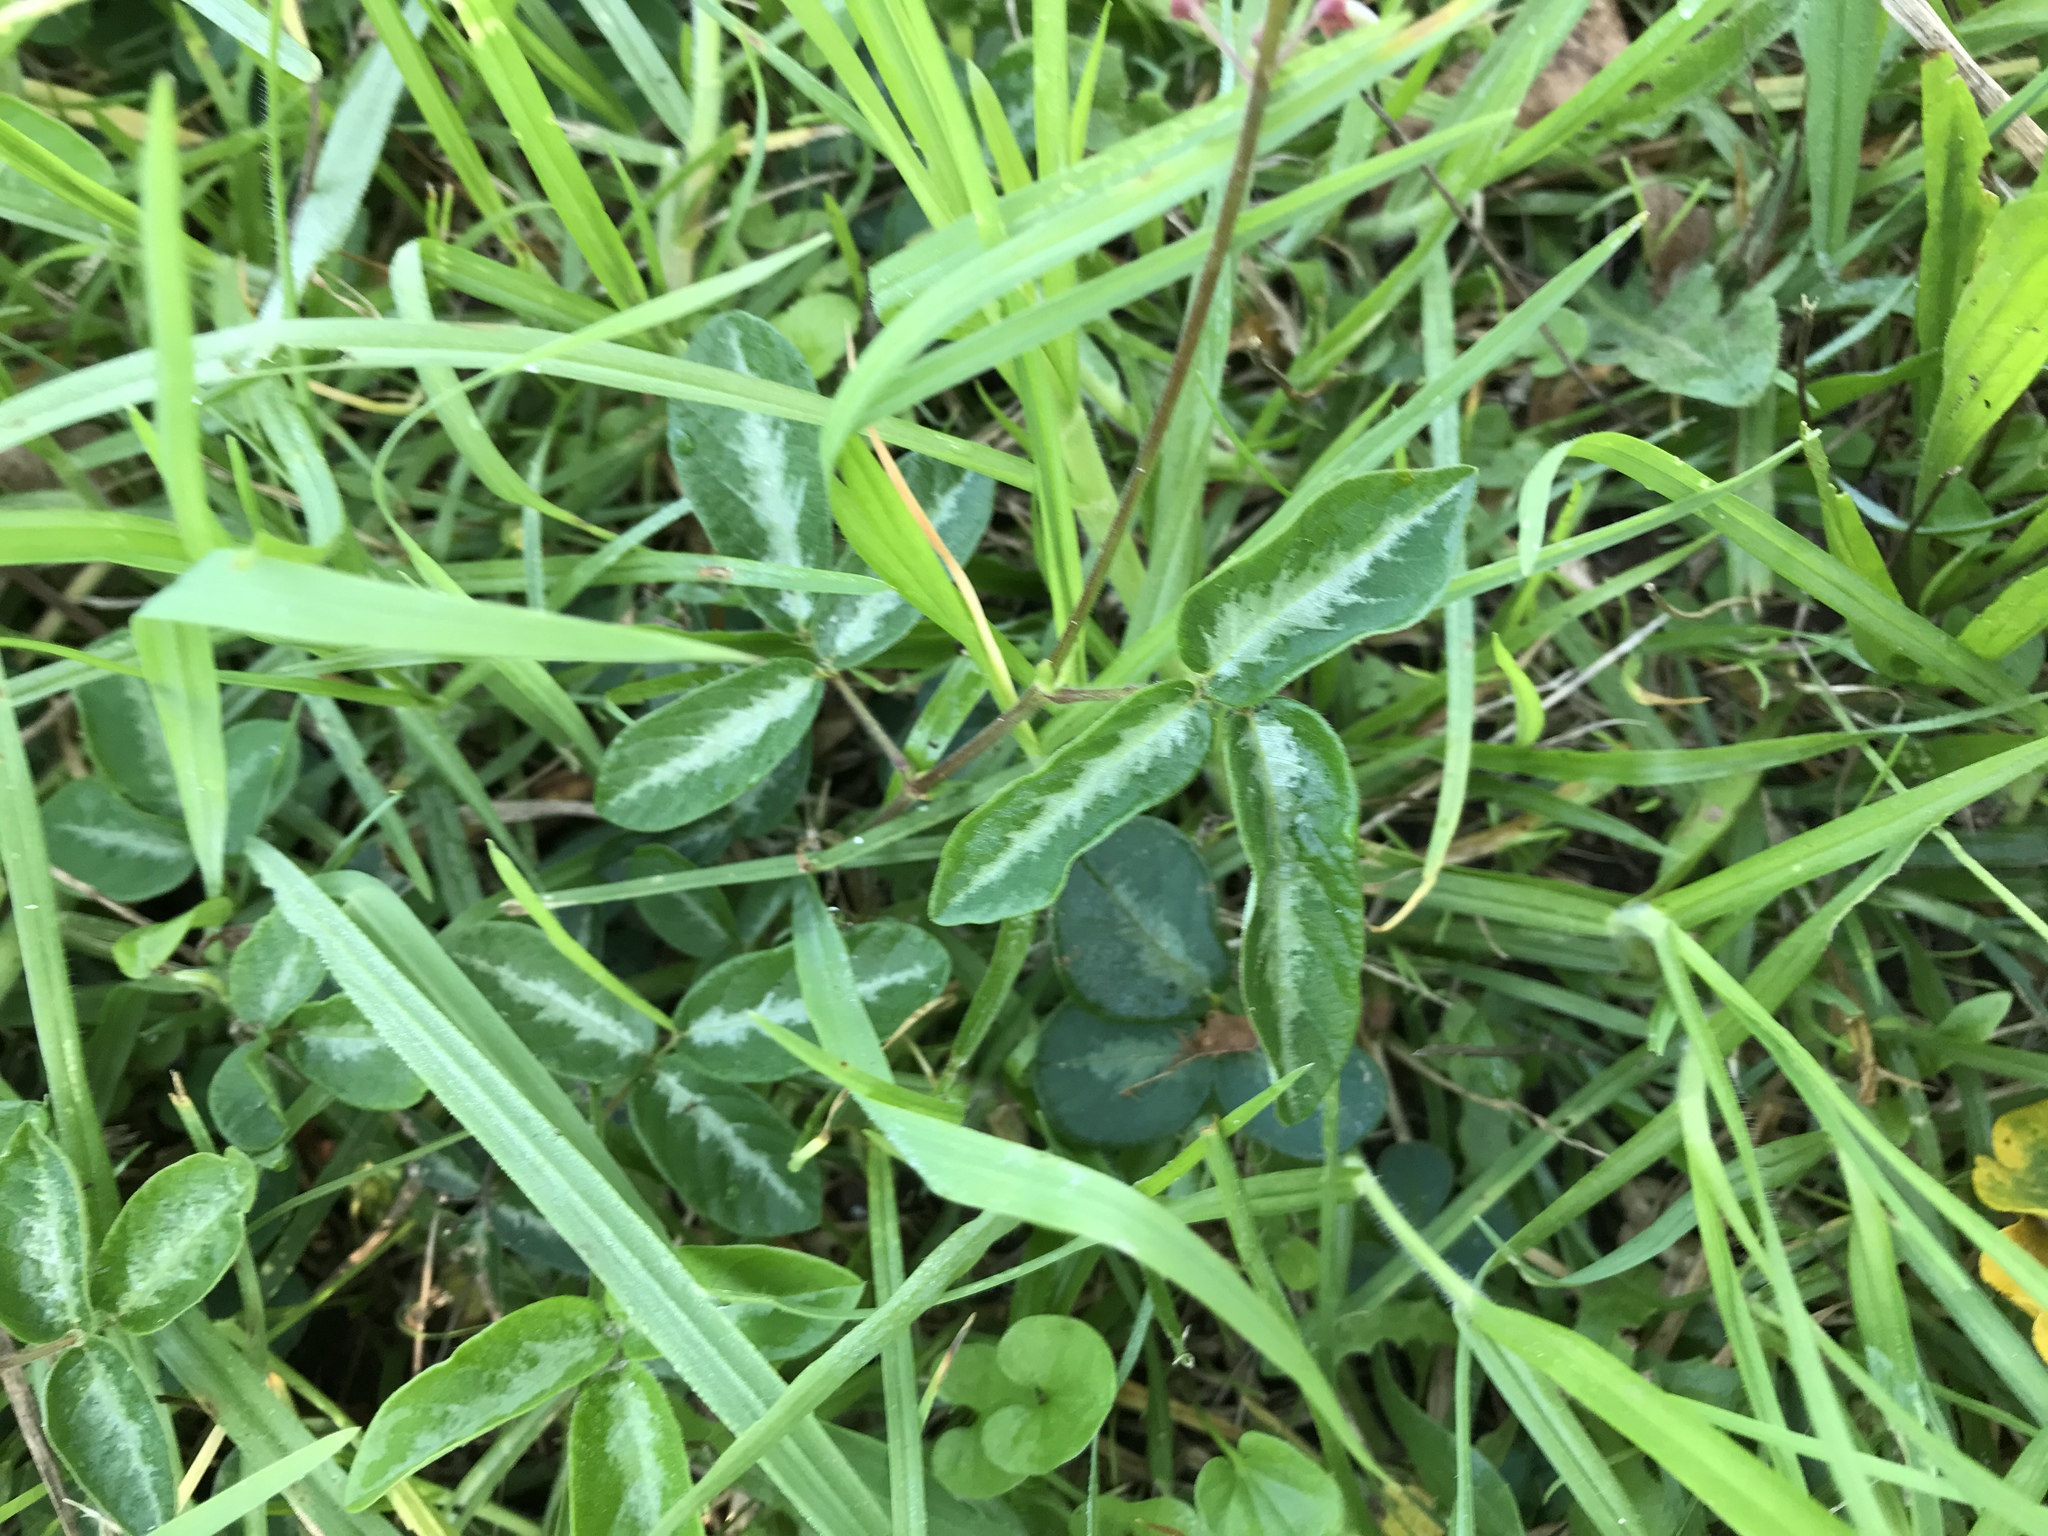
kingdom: Plantae
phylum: Tracheophyta
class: Magnoliopsida
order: Fabales
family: Fabaceae
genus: Desmodium
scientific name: Desmodium incanum
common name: Tickclover
